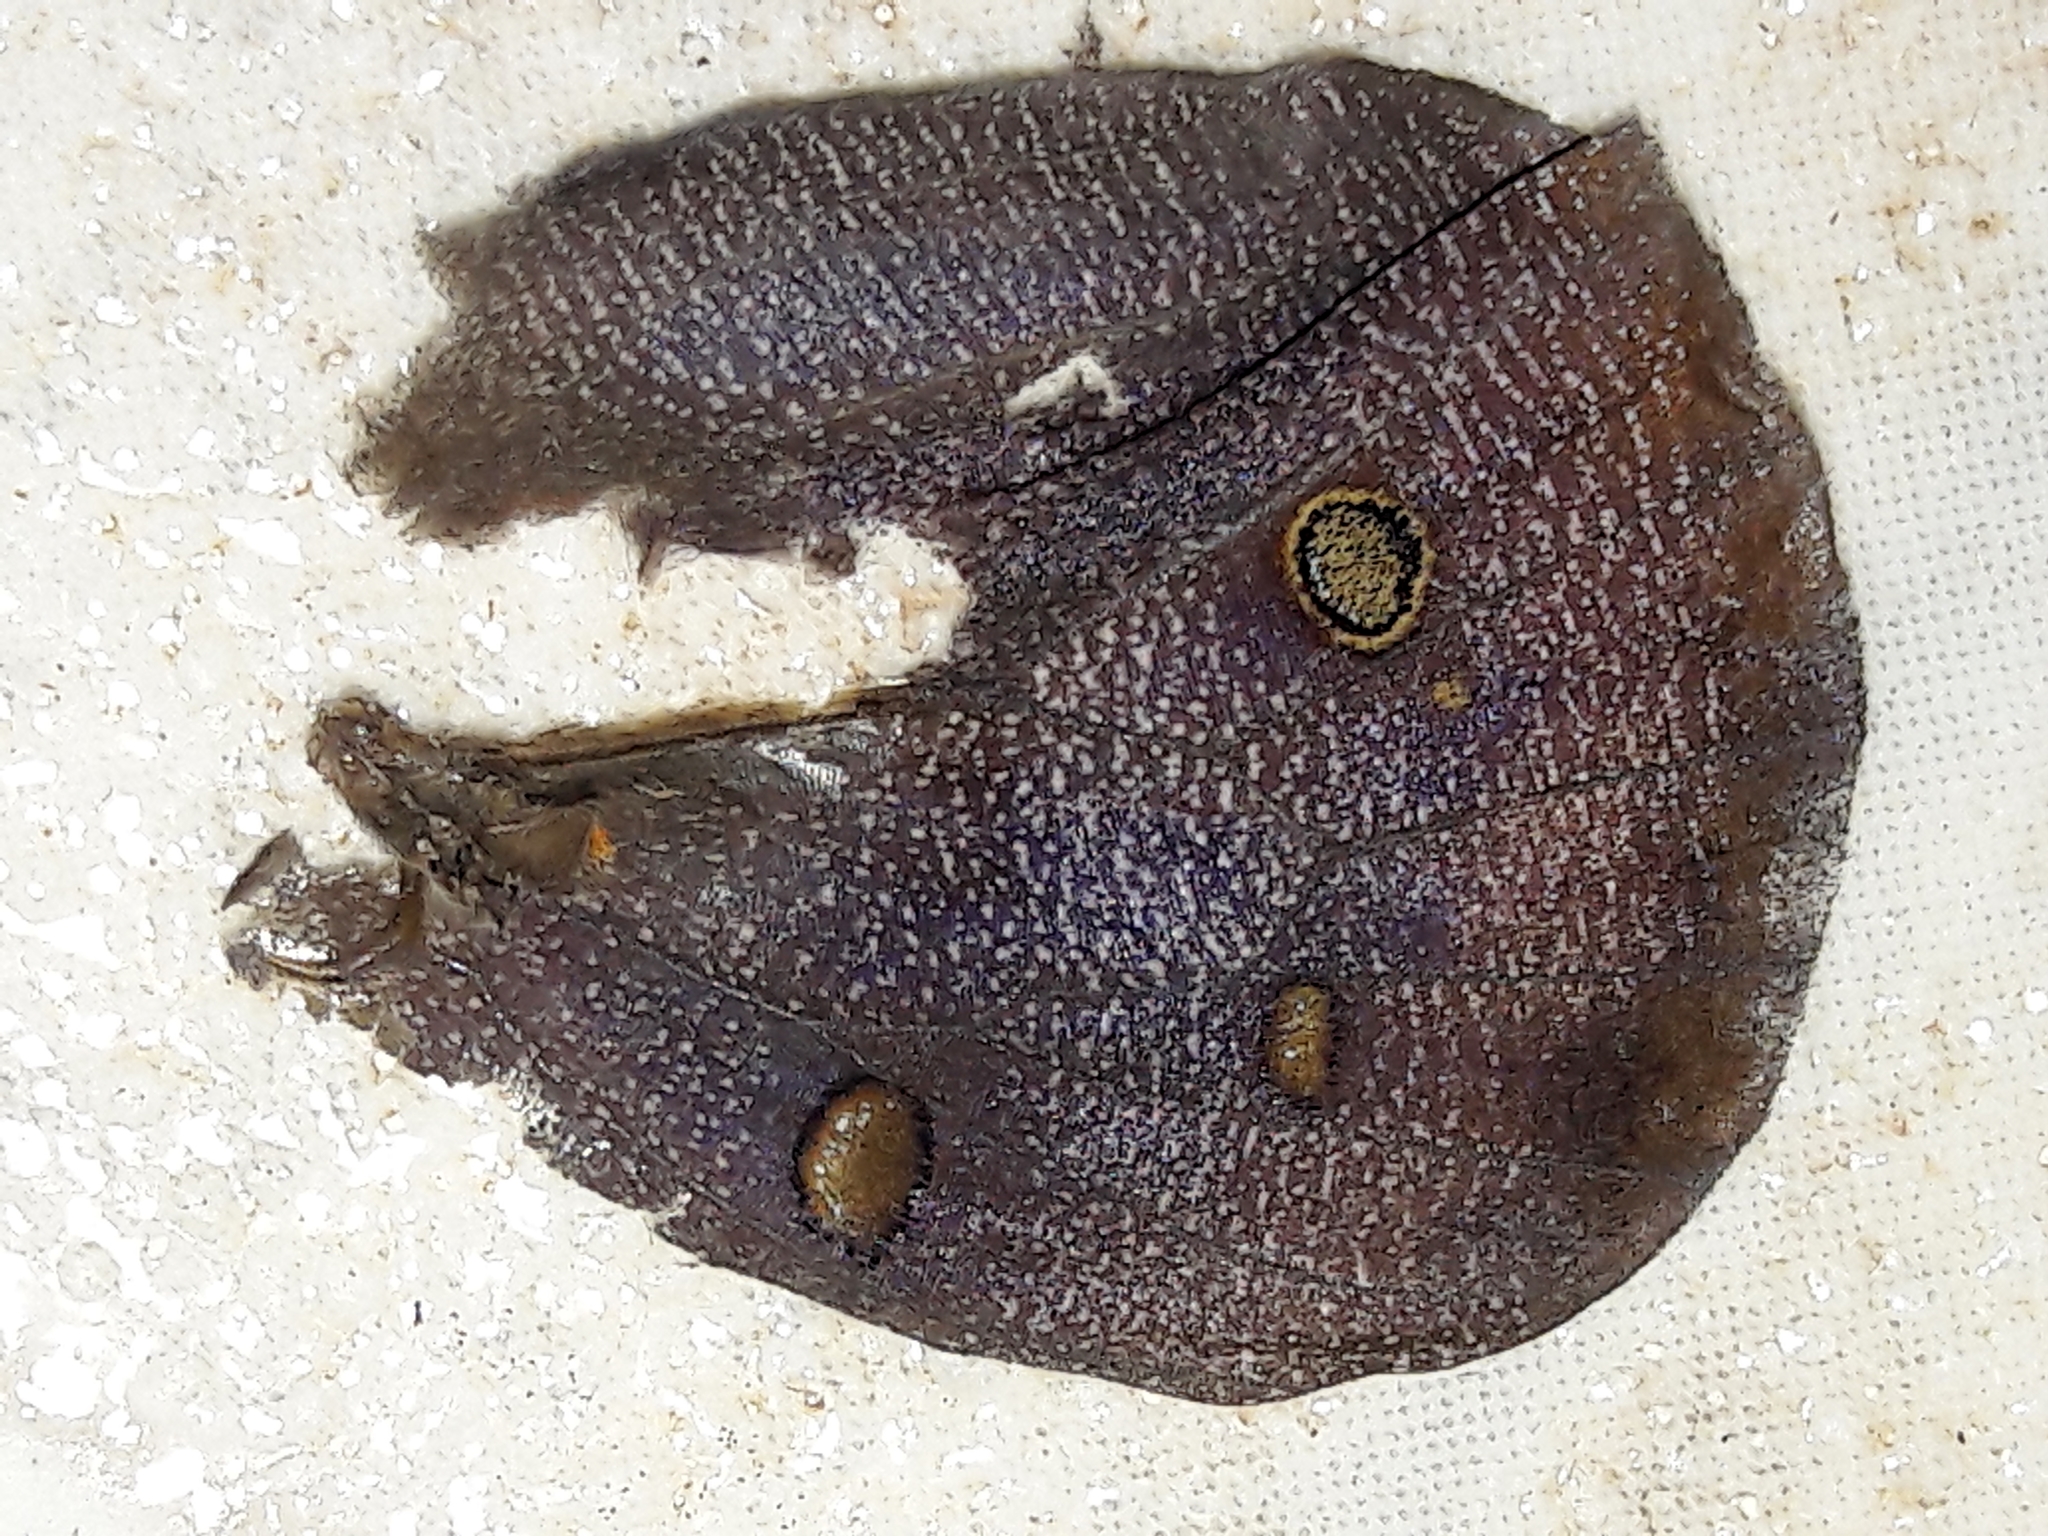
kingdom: Animalia
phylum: Arthropoda
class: Insecta
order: Lepidoptera
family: Nymphalidae
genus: Brassolis
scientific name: Brassolis sophorae
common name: Coconut caterpillar
